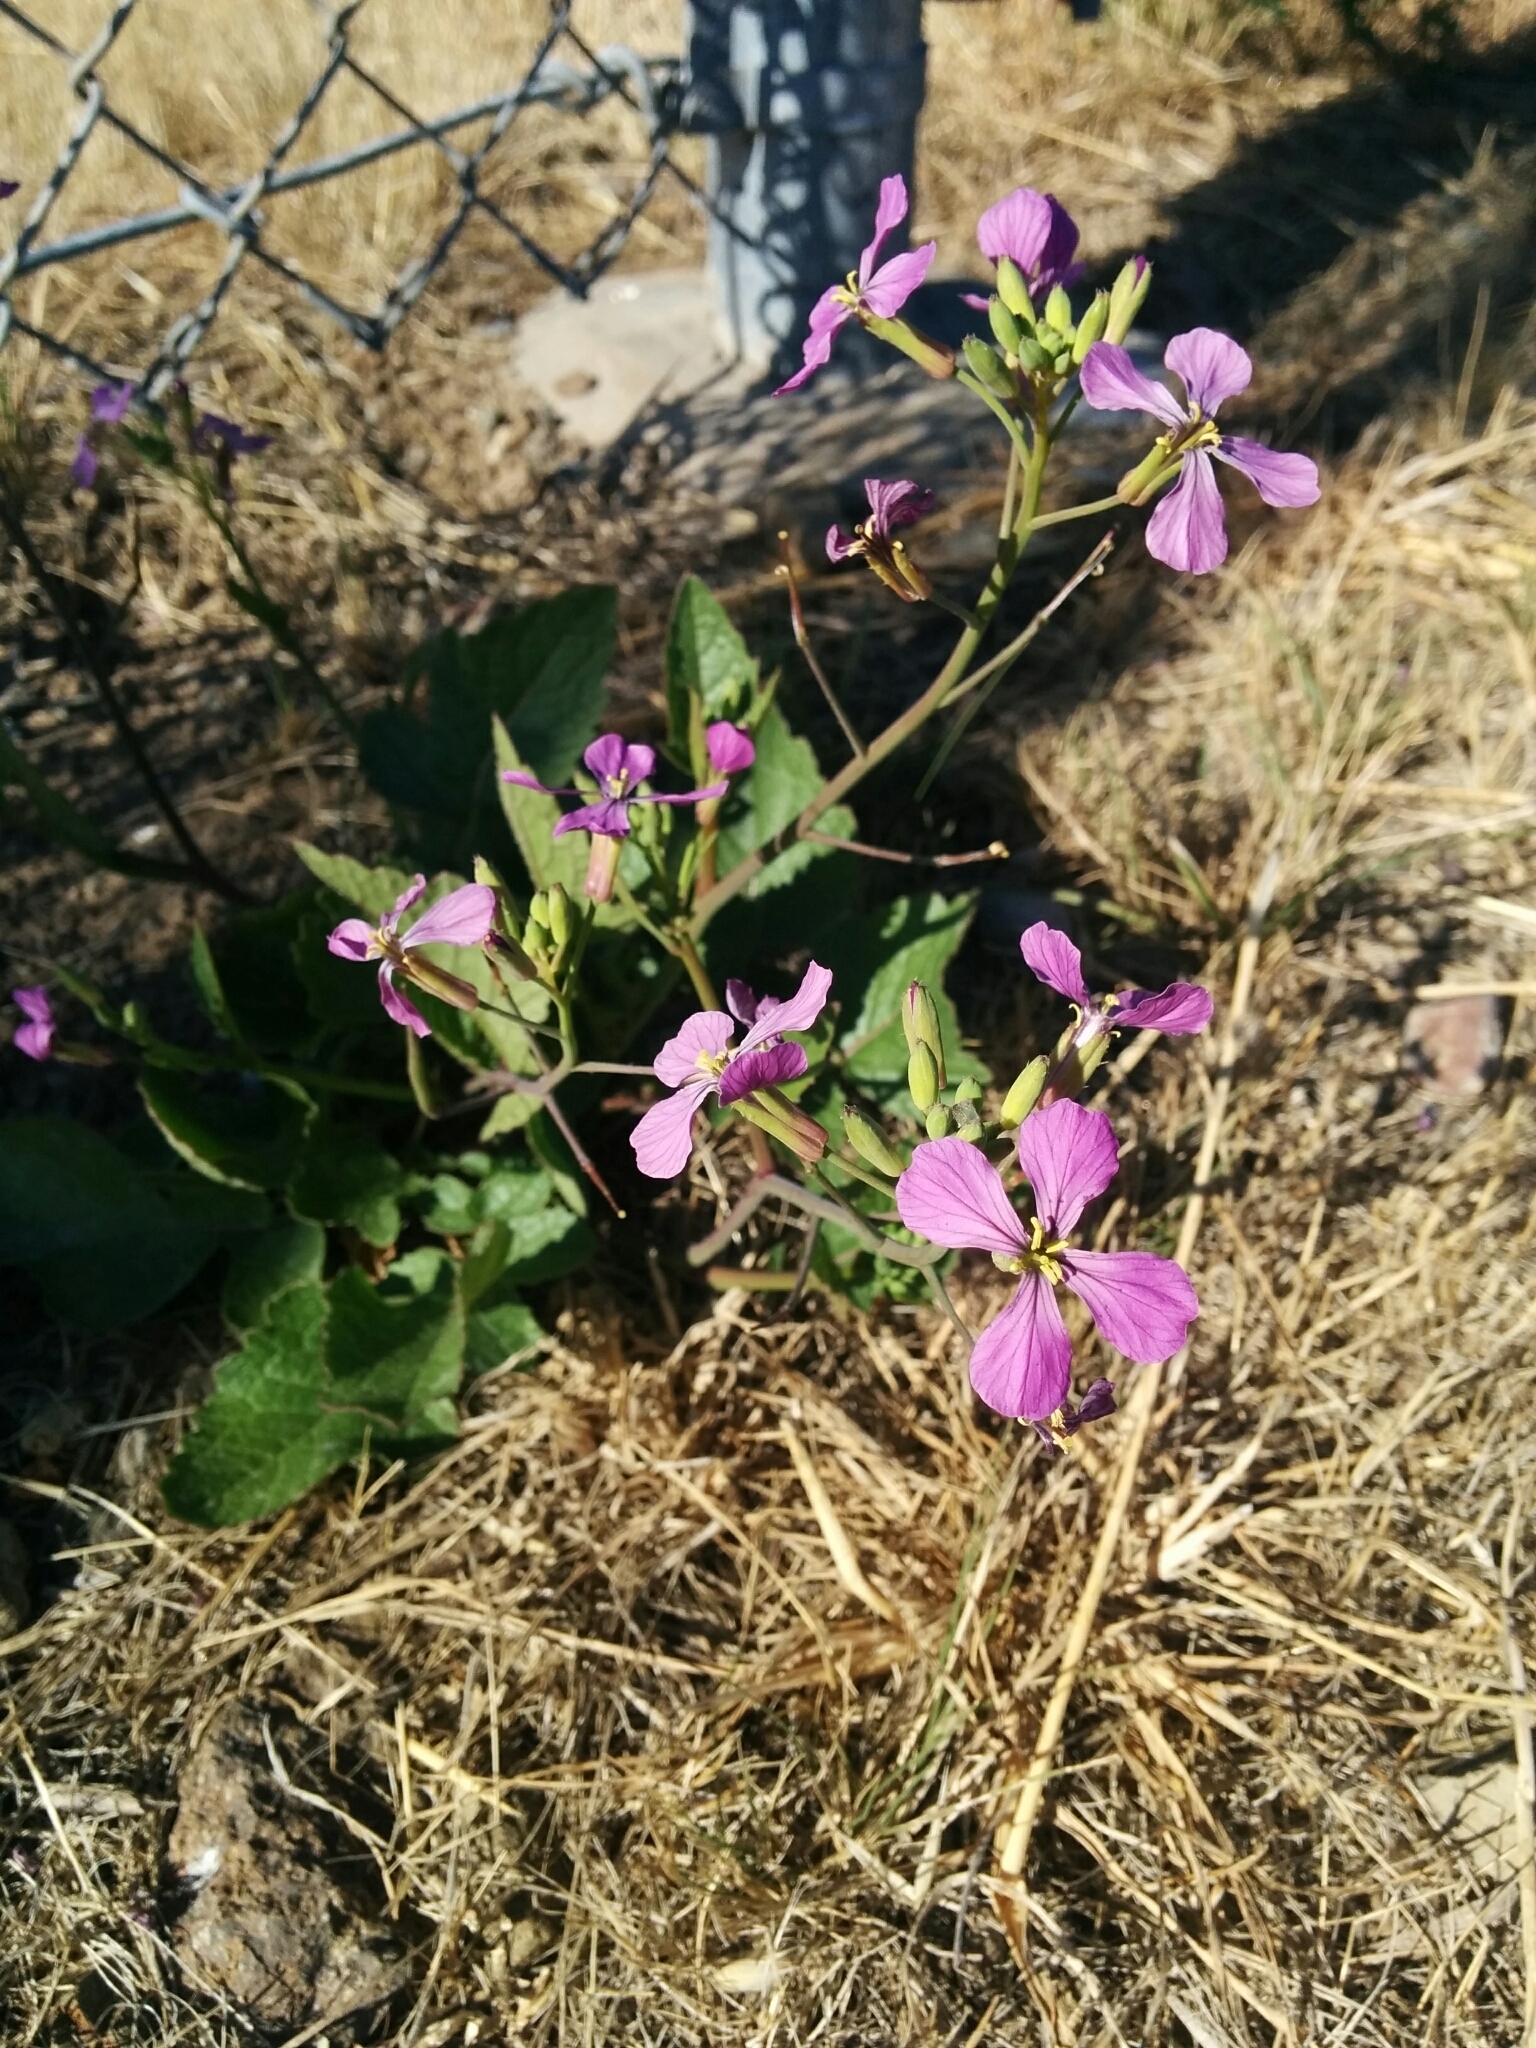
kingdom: Plantae
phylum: Tracheophyta
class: Magnoliopsida
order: Brassicales
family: Brassicaceae
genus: Raphanus
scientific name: Raphanus sativus
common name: Cultivated radish
